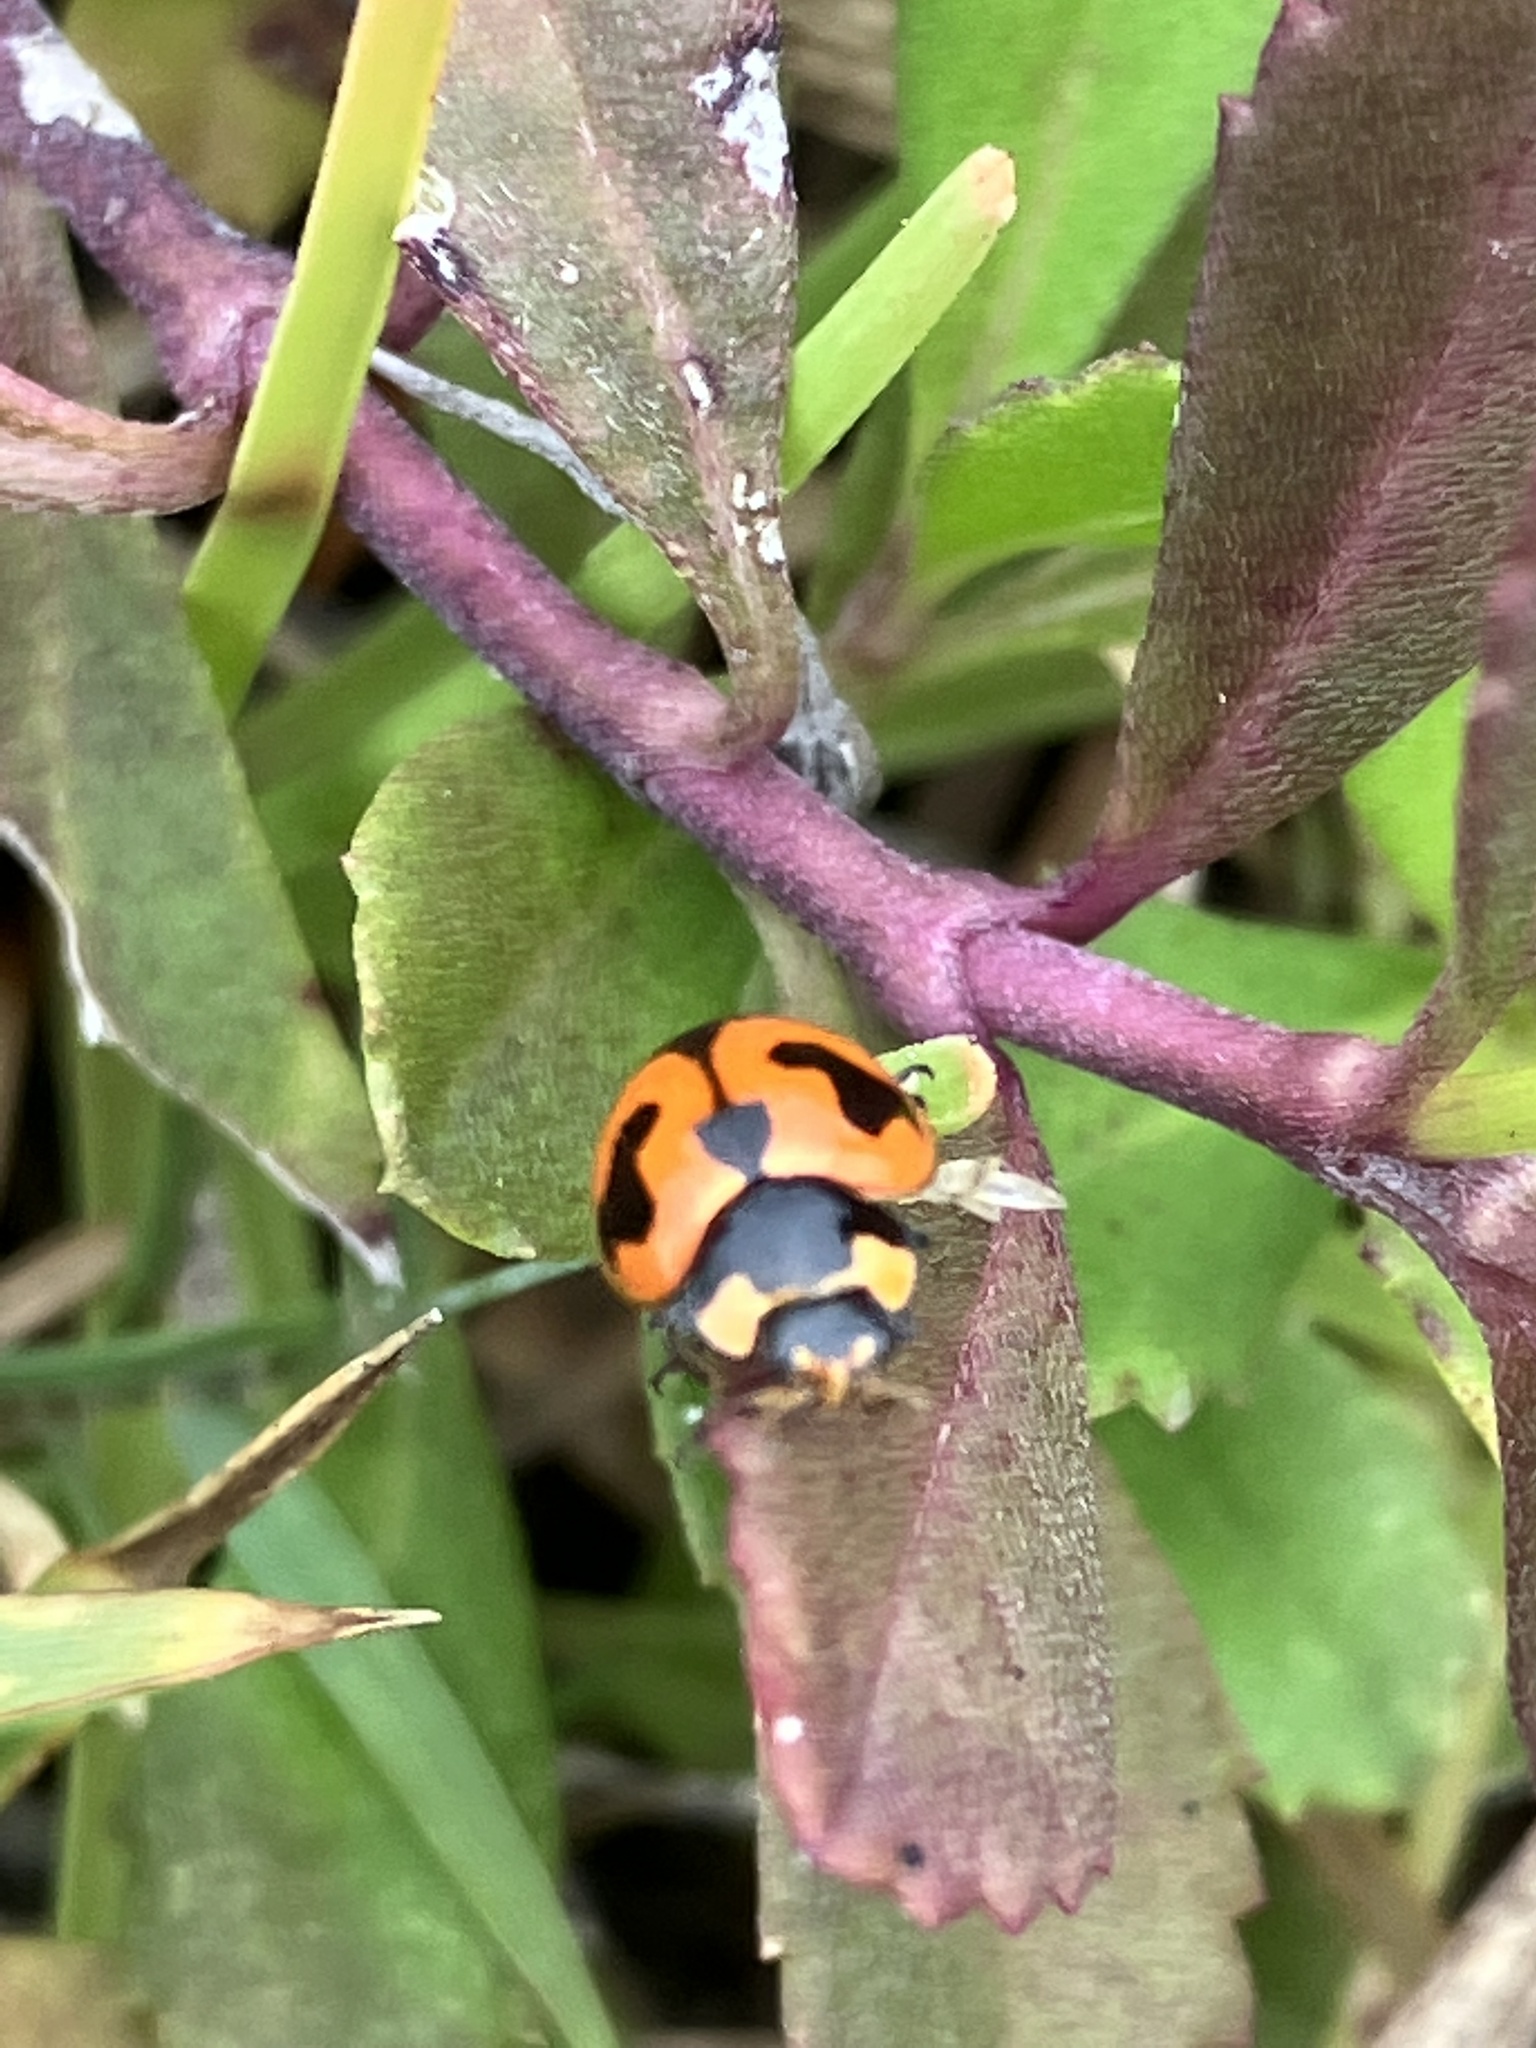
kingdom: Animalia
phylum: Arthropoda
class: Insecta
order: Coleoptera
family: Coccinellidae
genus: Coccinella
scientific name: Coccinella transversalis
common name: Transverse lady beetle
